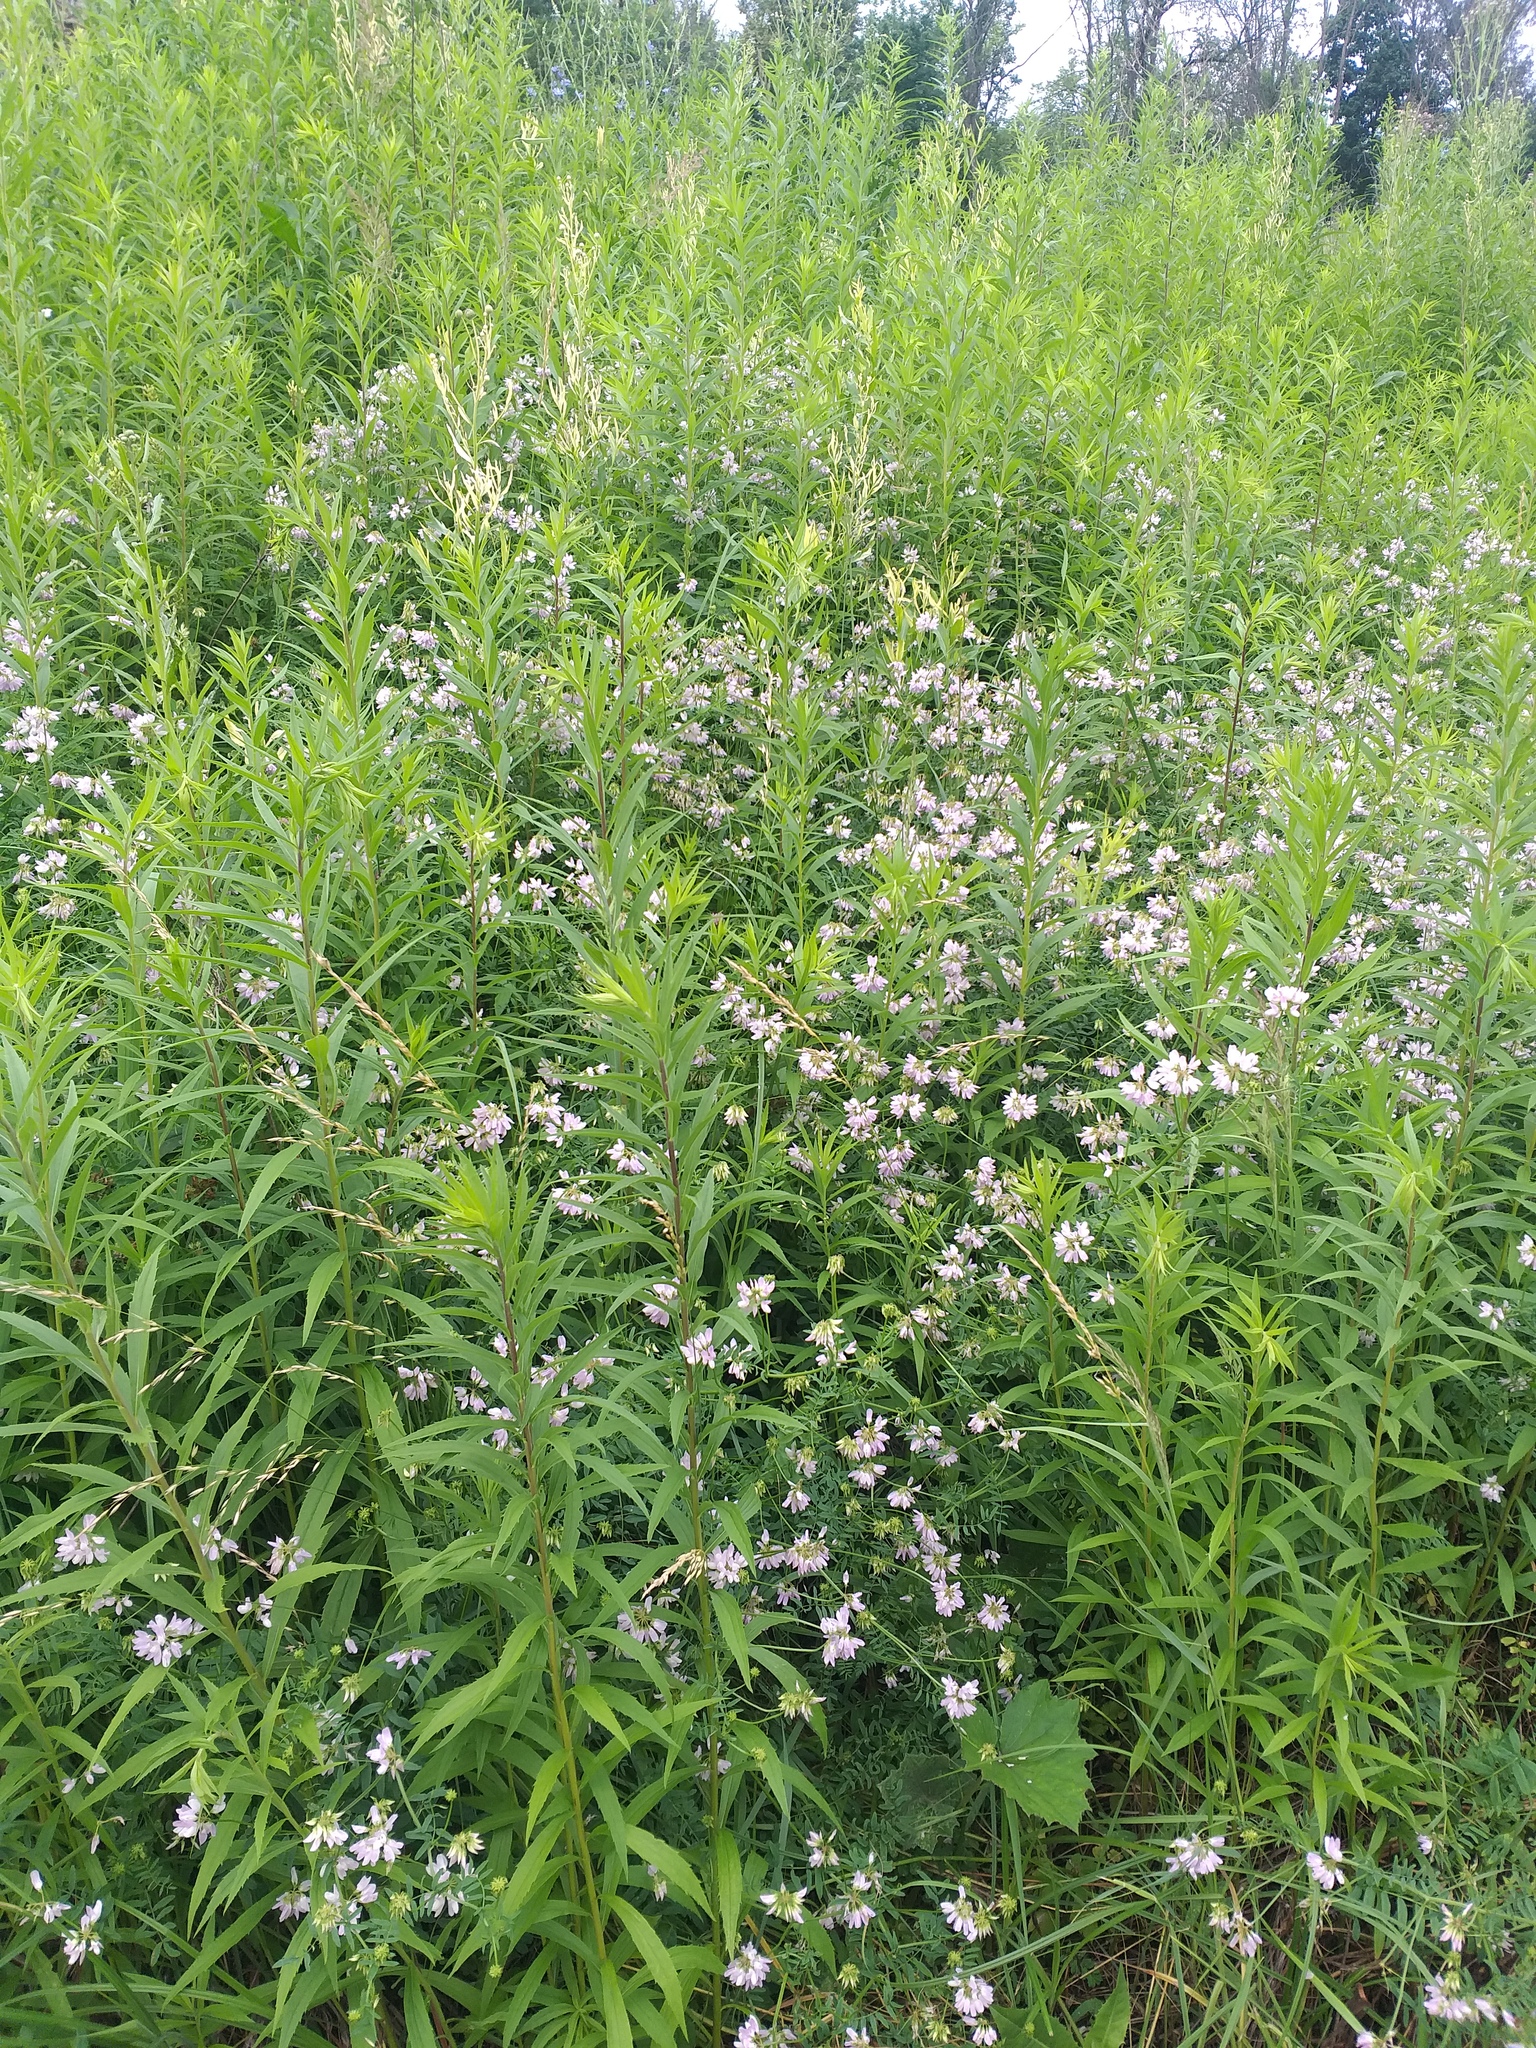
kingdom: Plantae
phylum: Tracheophyta
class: Magnoliopsida
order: Fabales
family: Fabaceae
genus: Coronilla
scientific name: Coronilla varia
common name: Crownvetch
